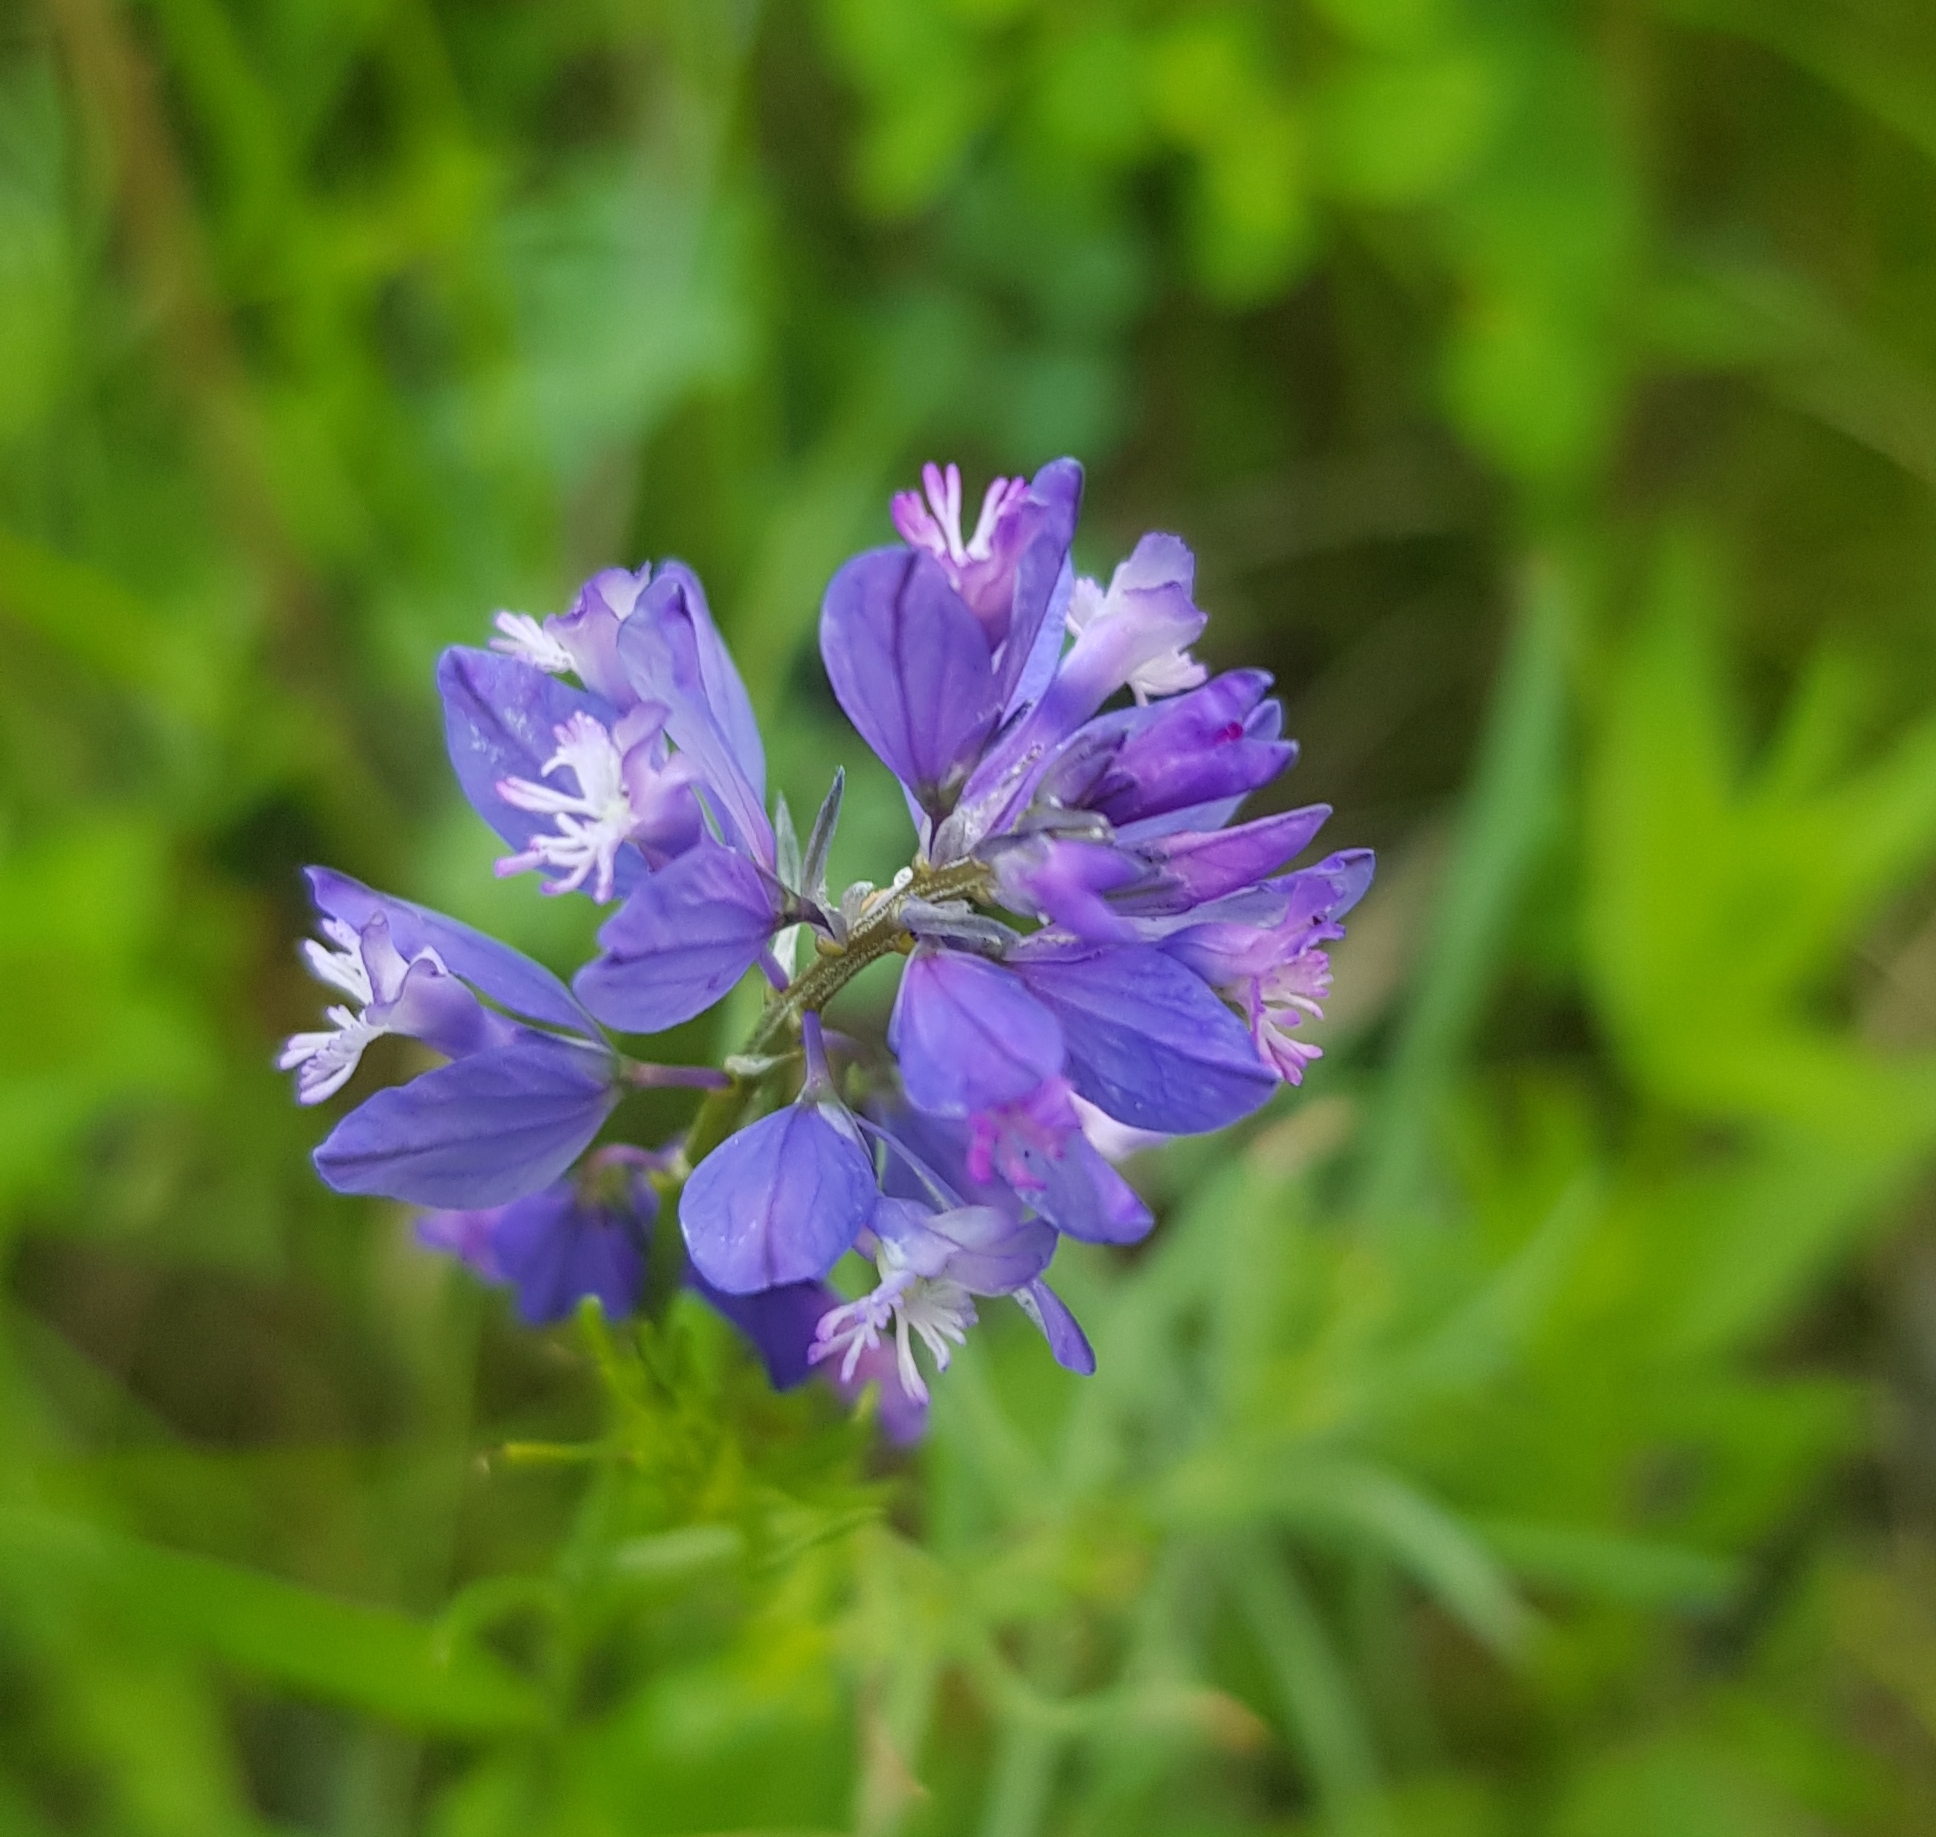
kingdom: Plantae
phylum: Tracheophyta
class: Magnoliopsida
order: Solanales
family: Solanaceae
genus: Hyoscyamus
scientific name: Hyoscyamus niger
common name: Henbane
